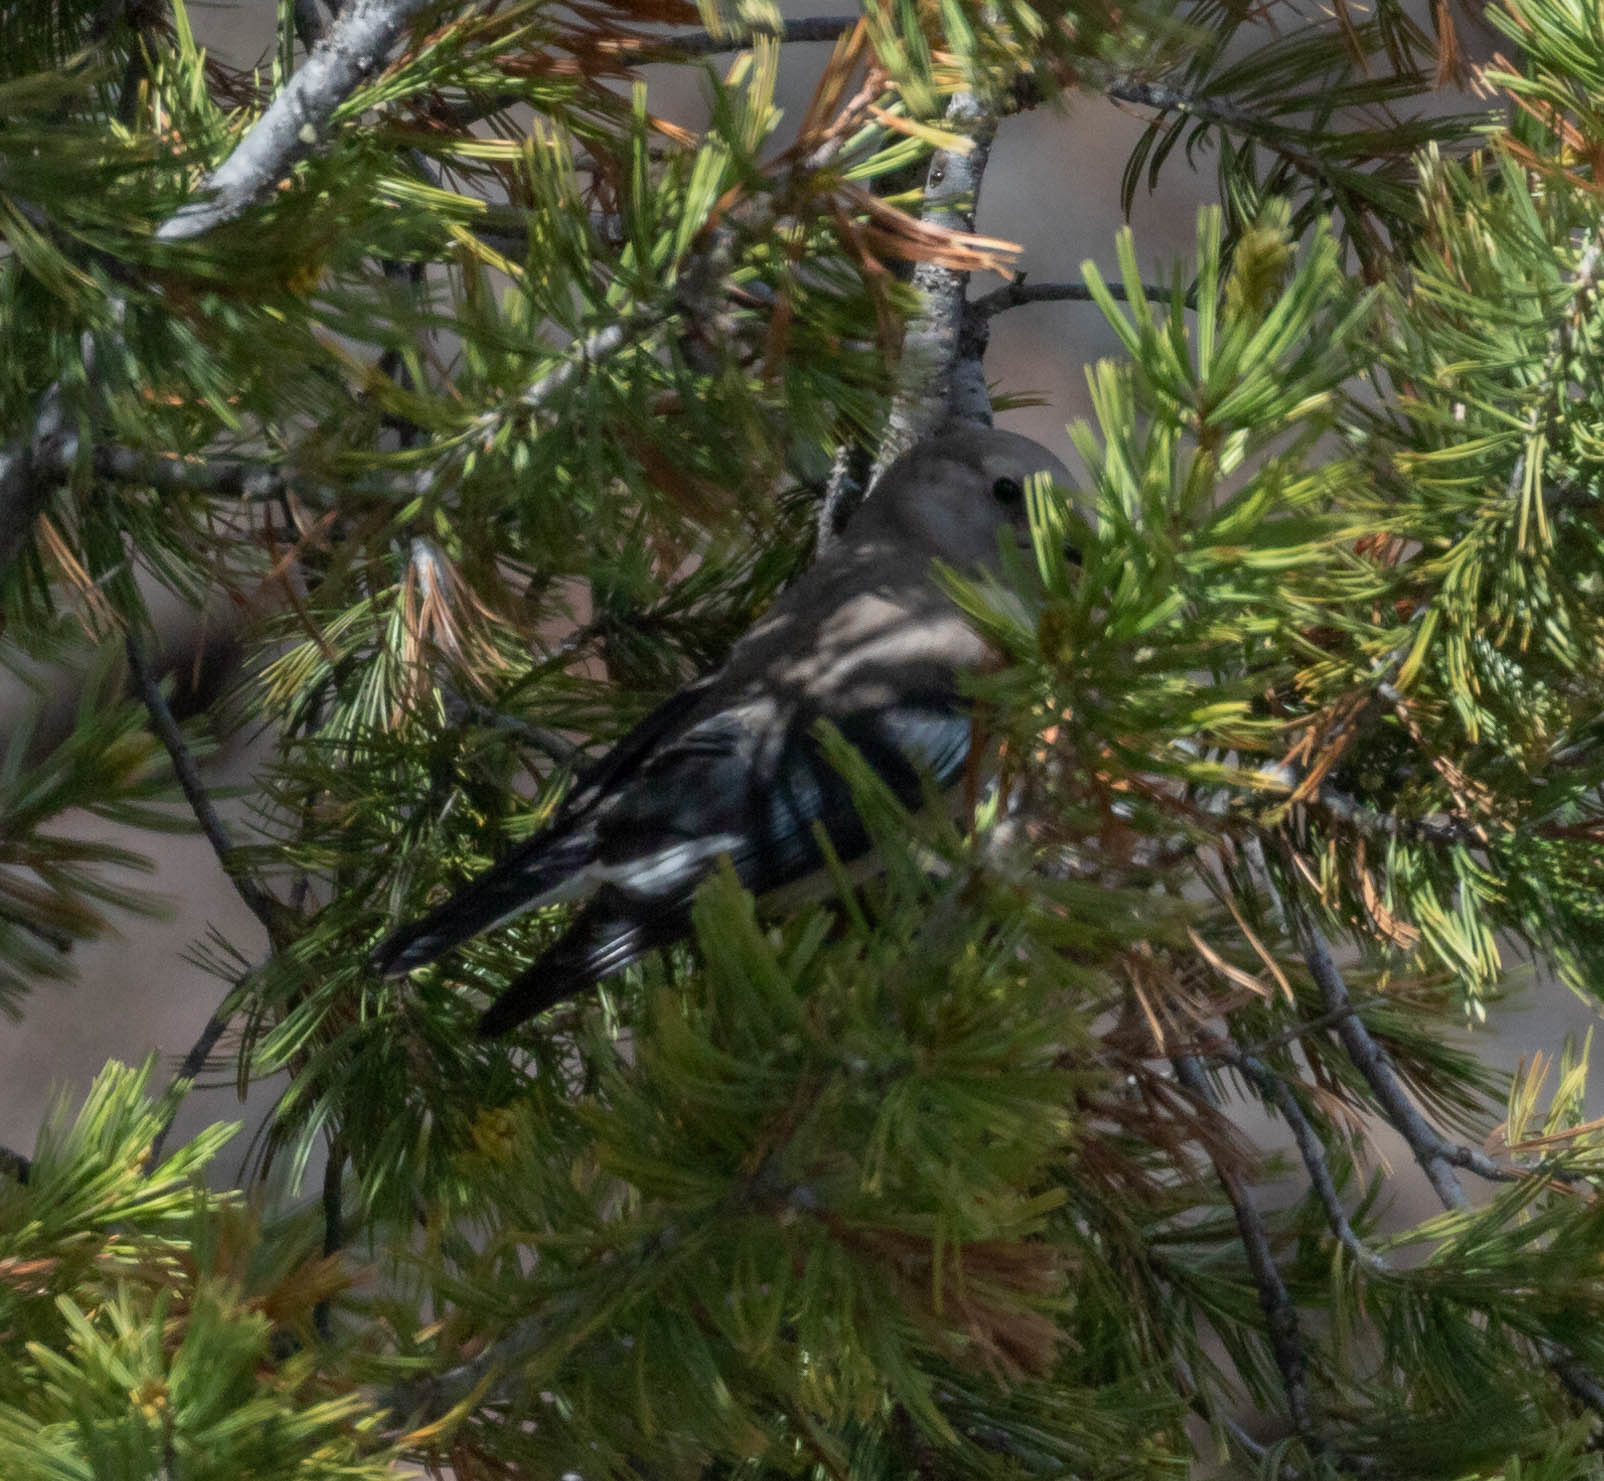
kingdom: Animalia
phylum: Chordata
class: Aves
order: Passeriformes
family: Corvidae
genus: Nucifraga
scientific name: Nucifraga columbiana
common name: Clark's nutcracker
